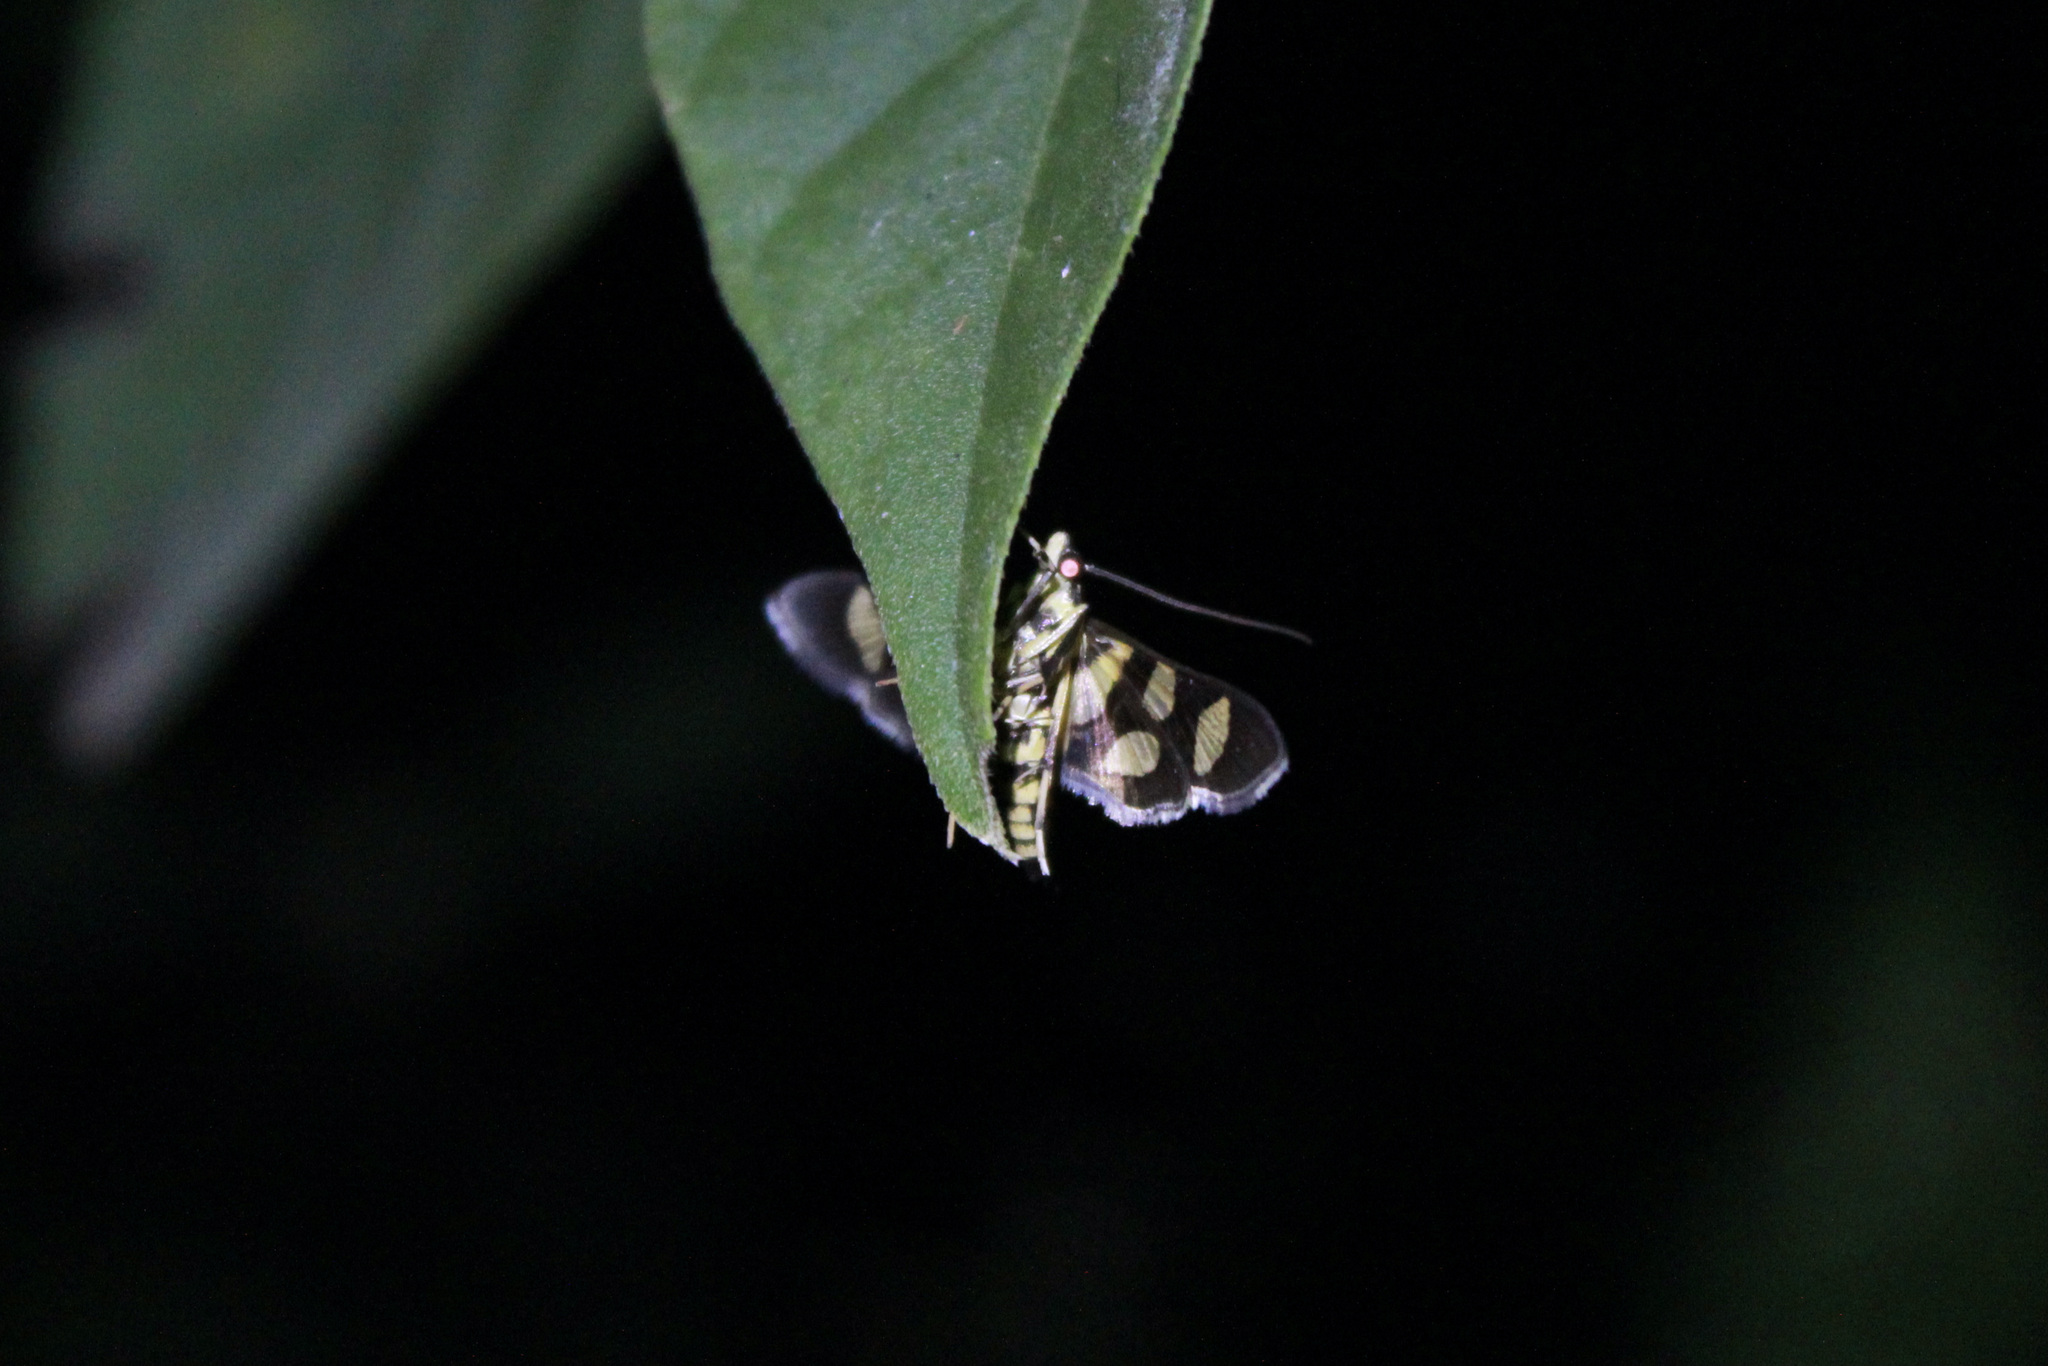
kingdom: Animalia
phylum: Arthropoda
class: Insecta
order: Lepidoptera
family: Crambidae
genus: Syngamia
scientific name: Syngamia florella
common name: Orange-spotted flower moth
